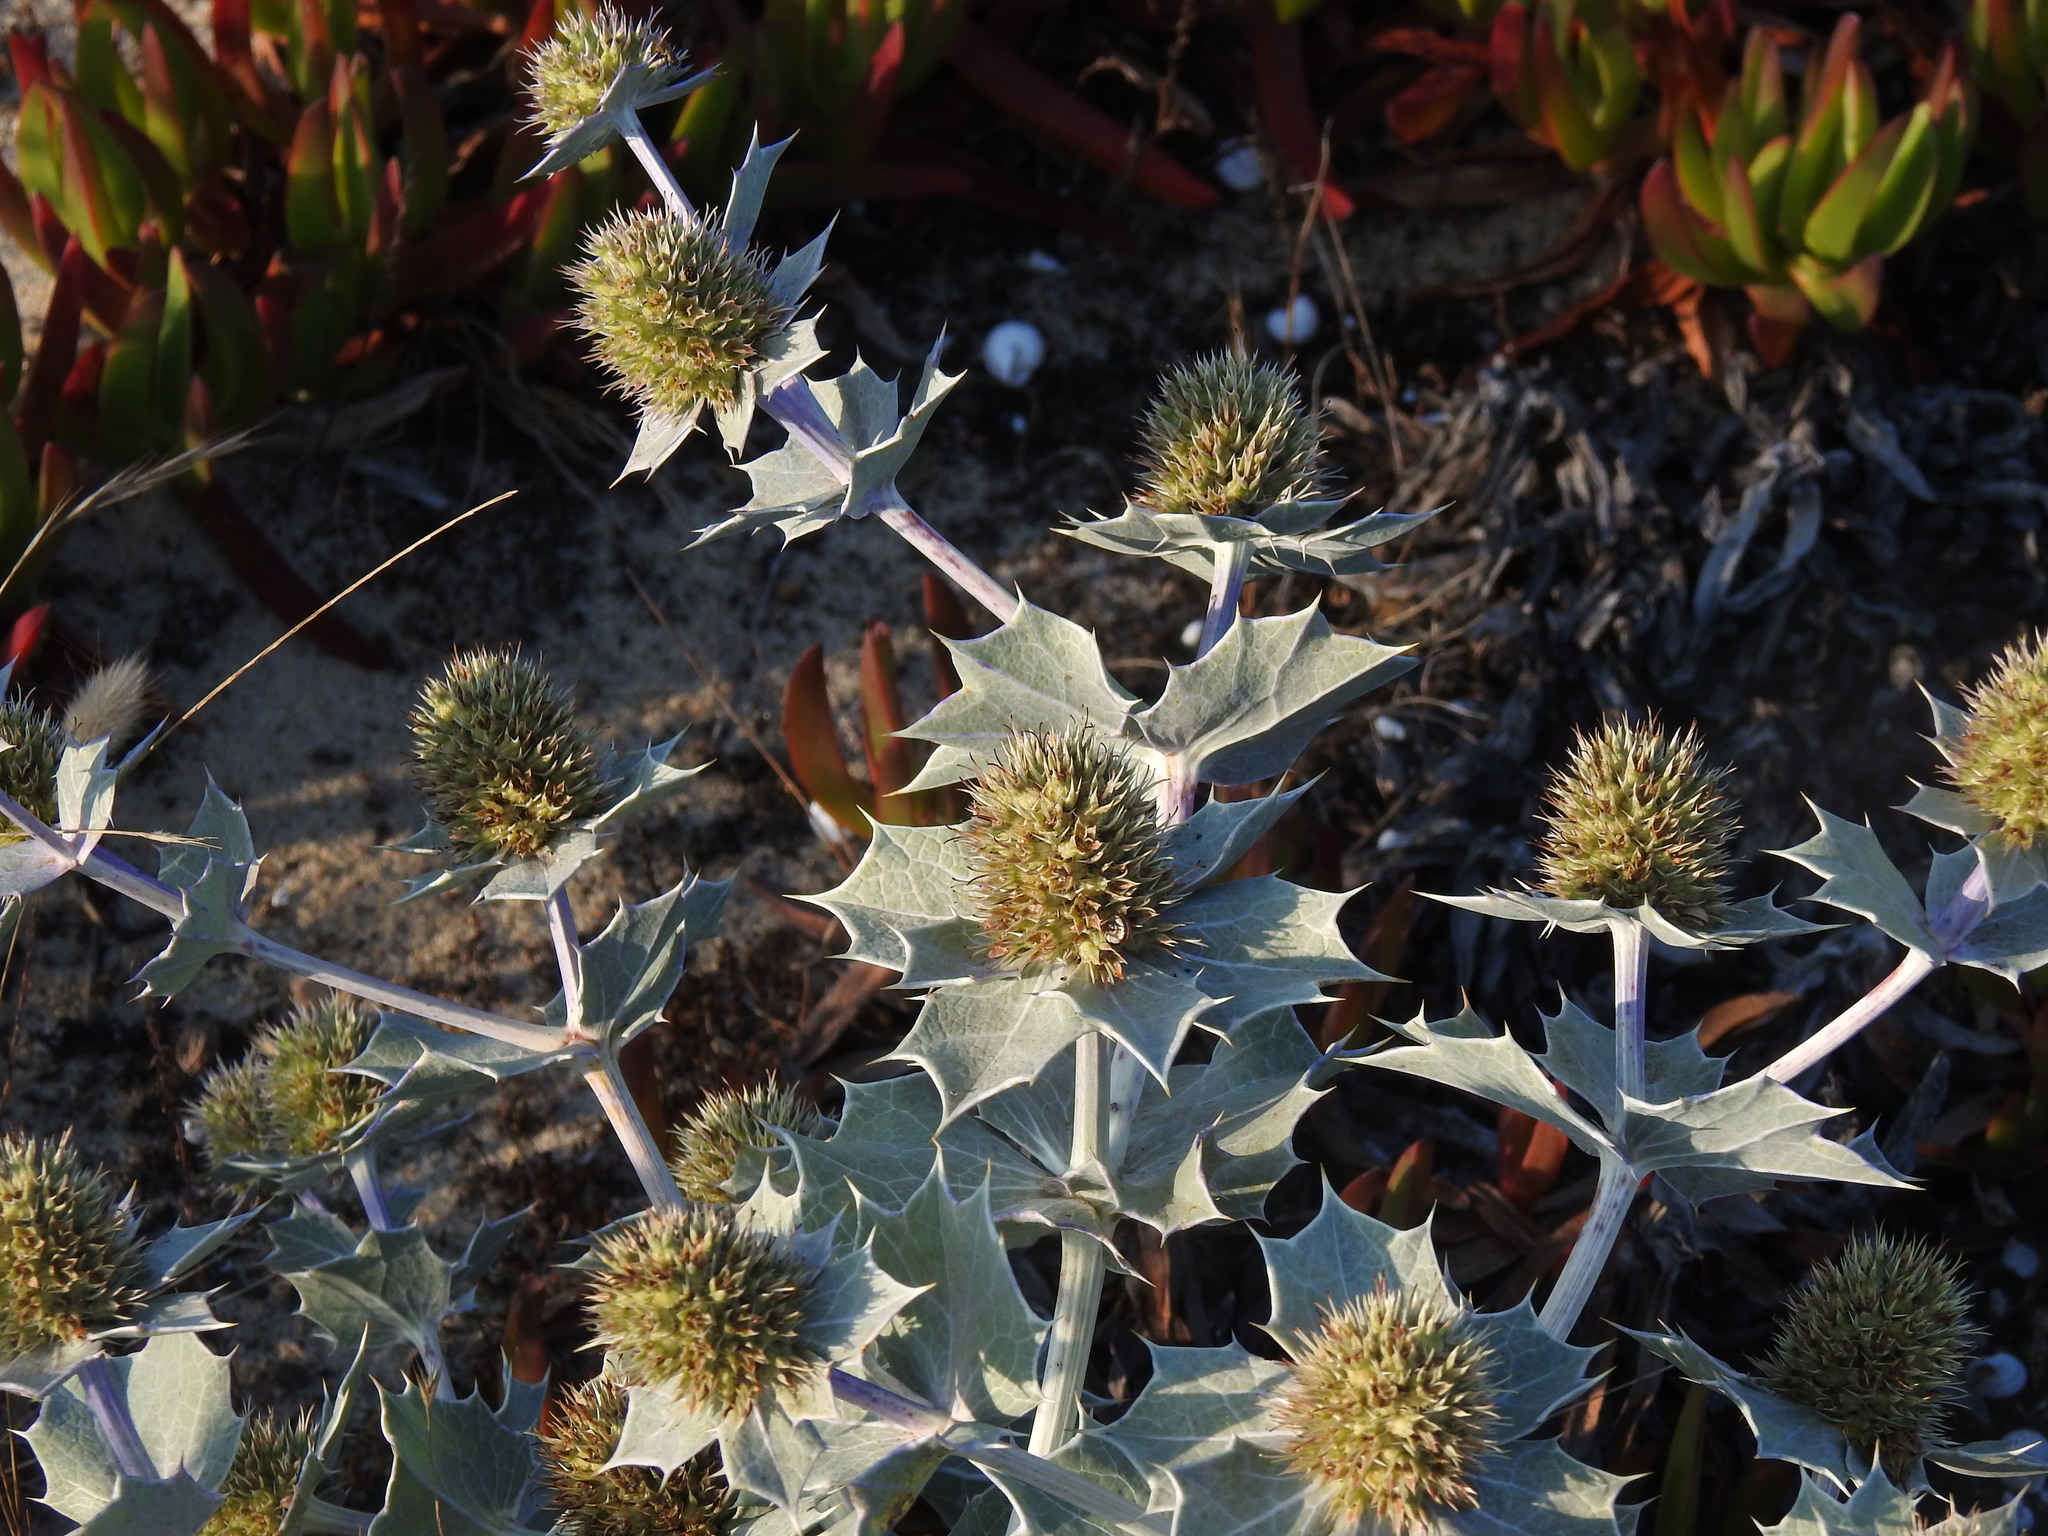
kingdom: Plantae
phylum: Tracheophyta
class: Magnoliopsida
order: Apiales
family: Apiaceae
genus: Eryngium
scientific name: Eryngium maritimum
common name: Sea-holly
